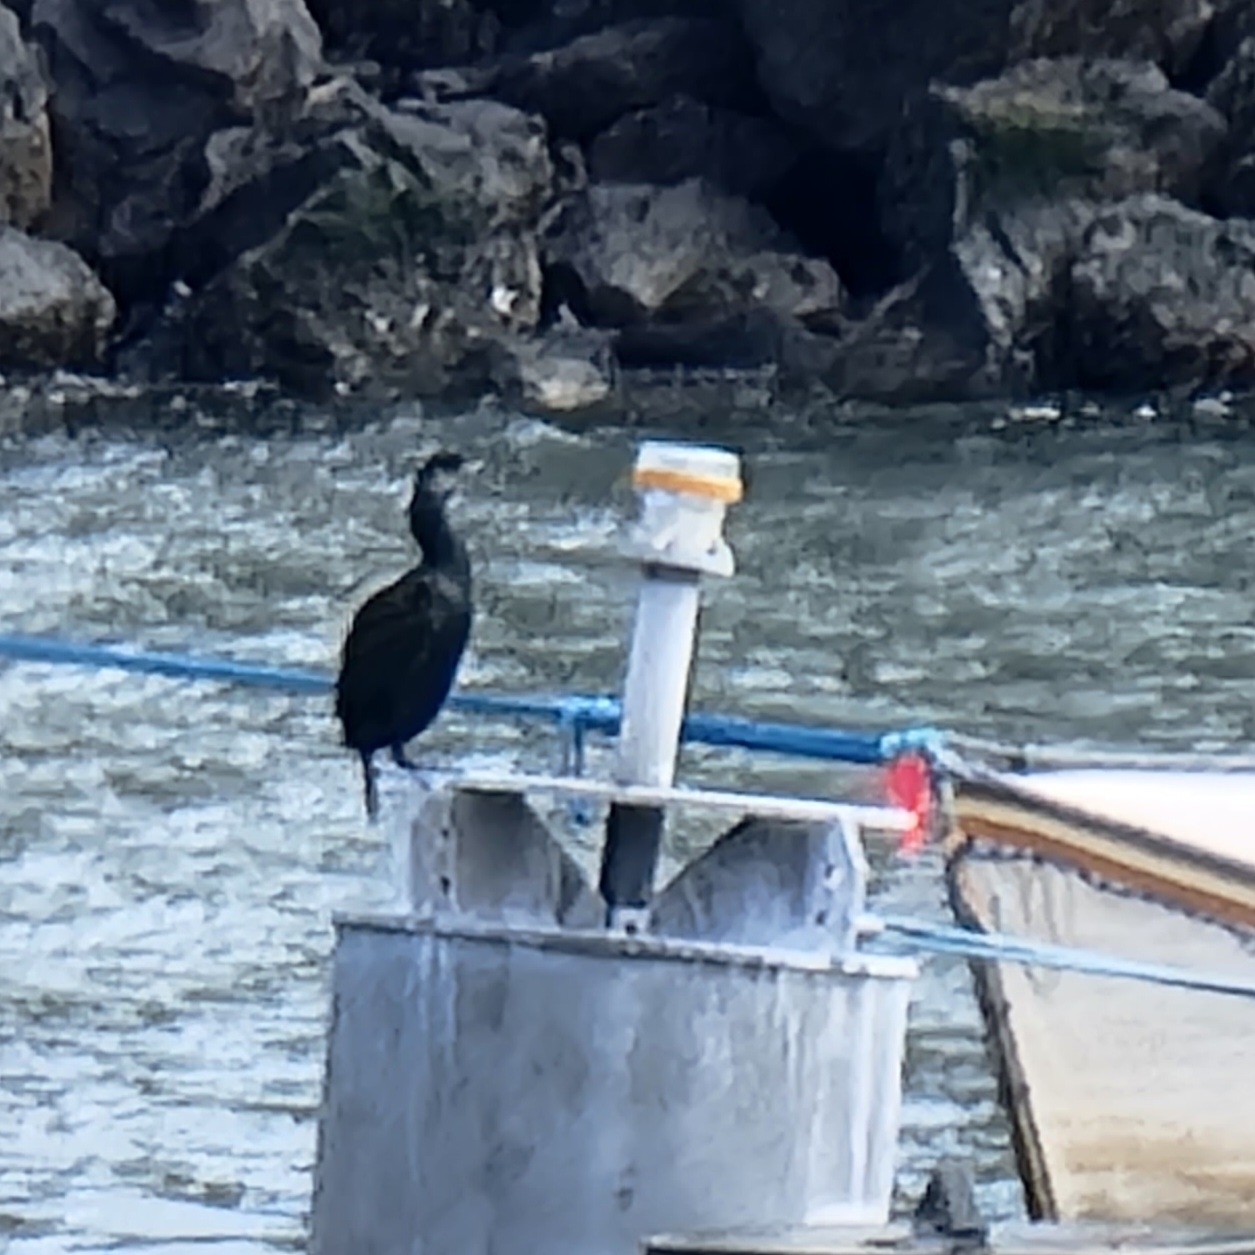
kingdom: Animalia
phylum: Chordata
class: Aves
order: Suliformes
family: Phalacrocoracidae
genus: Phalacrocorax
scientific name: Phalacrocorax pelagicus
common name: Pelagic cormorant
